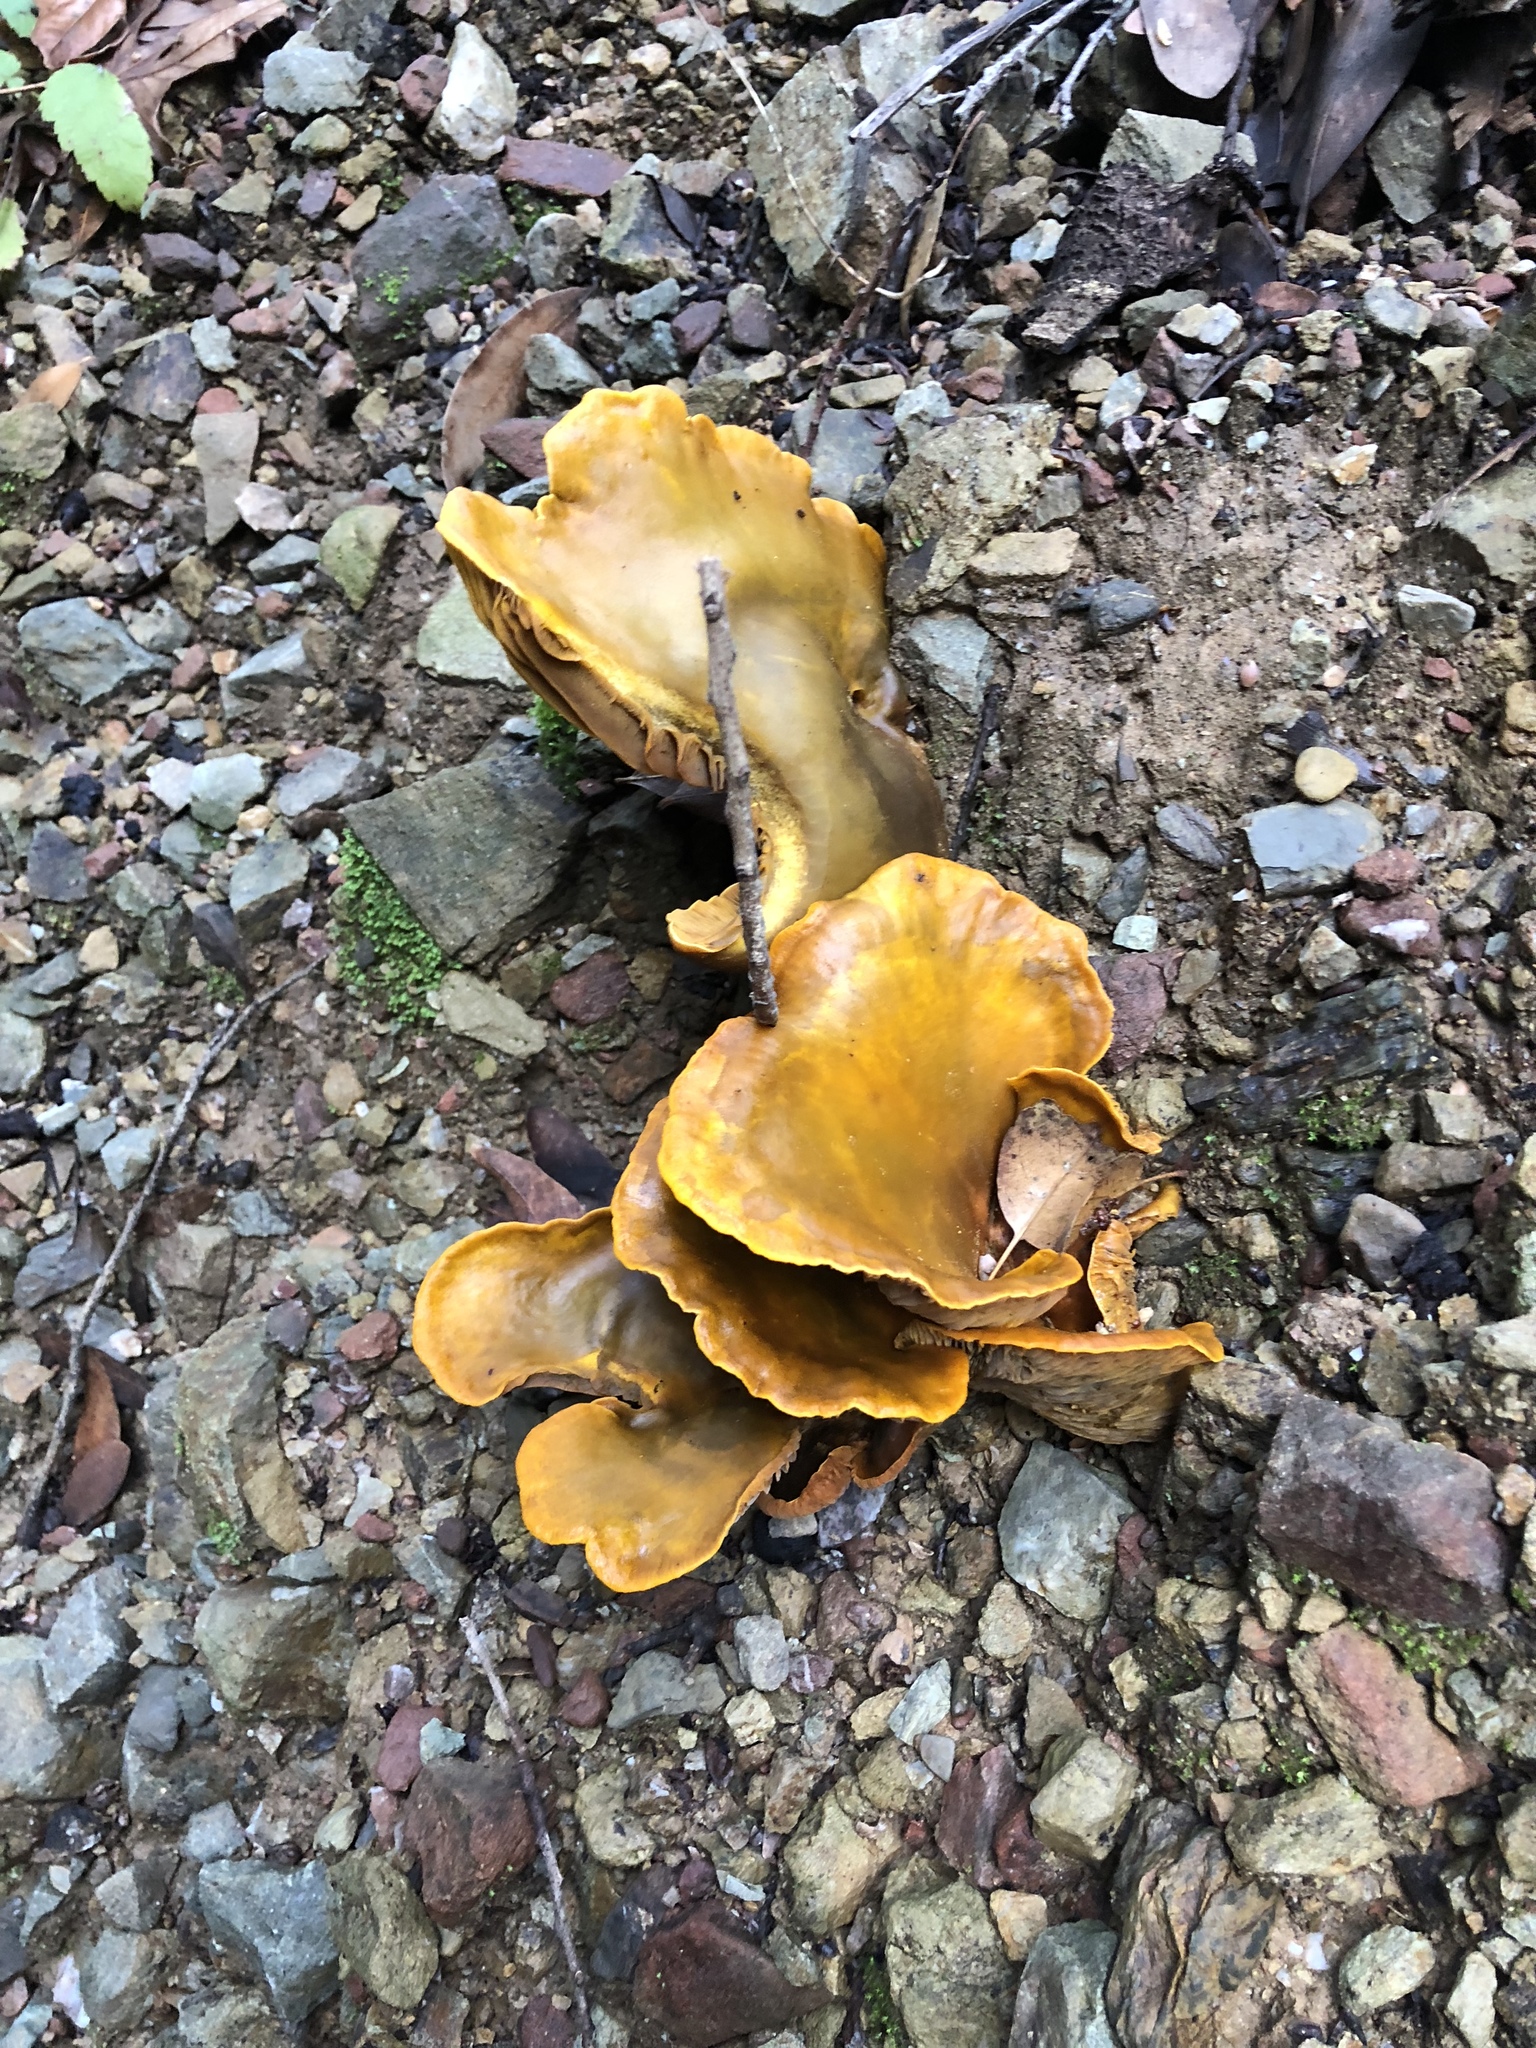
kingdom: Fungi
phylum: Basidiomycota
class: Agaricomycetes
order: Agaricales
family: Omphalotaceae
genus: Omphalotus
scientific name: Omphalotus olivascens
